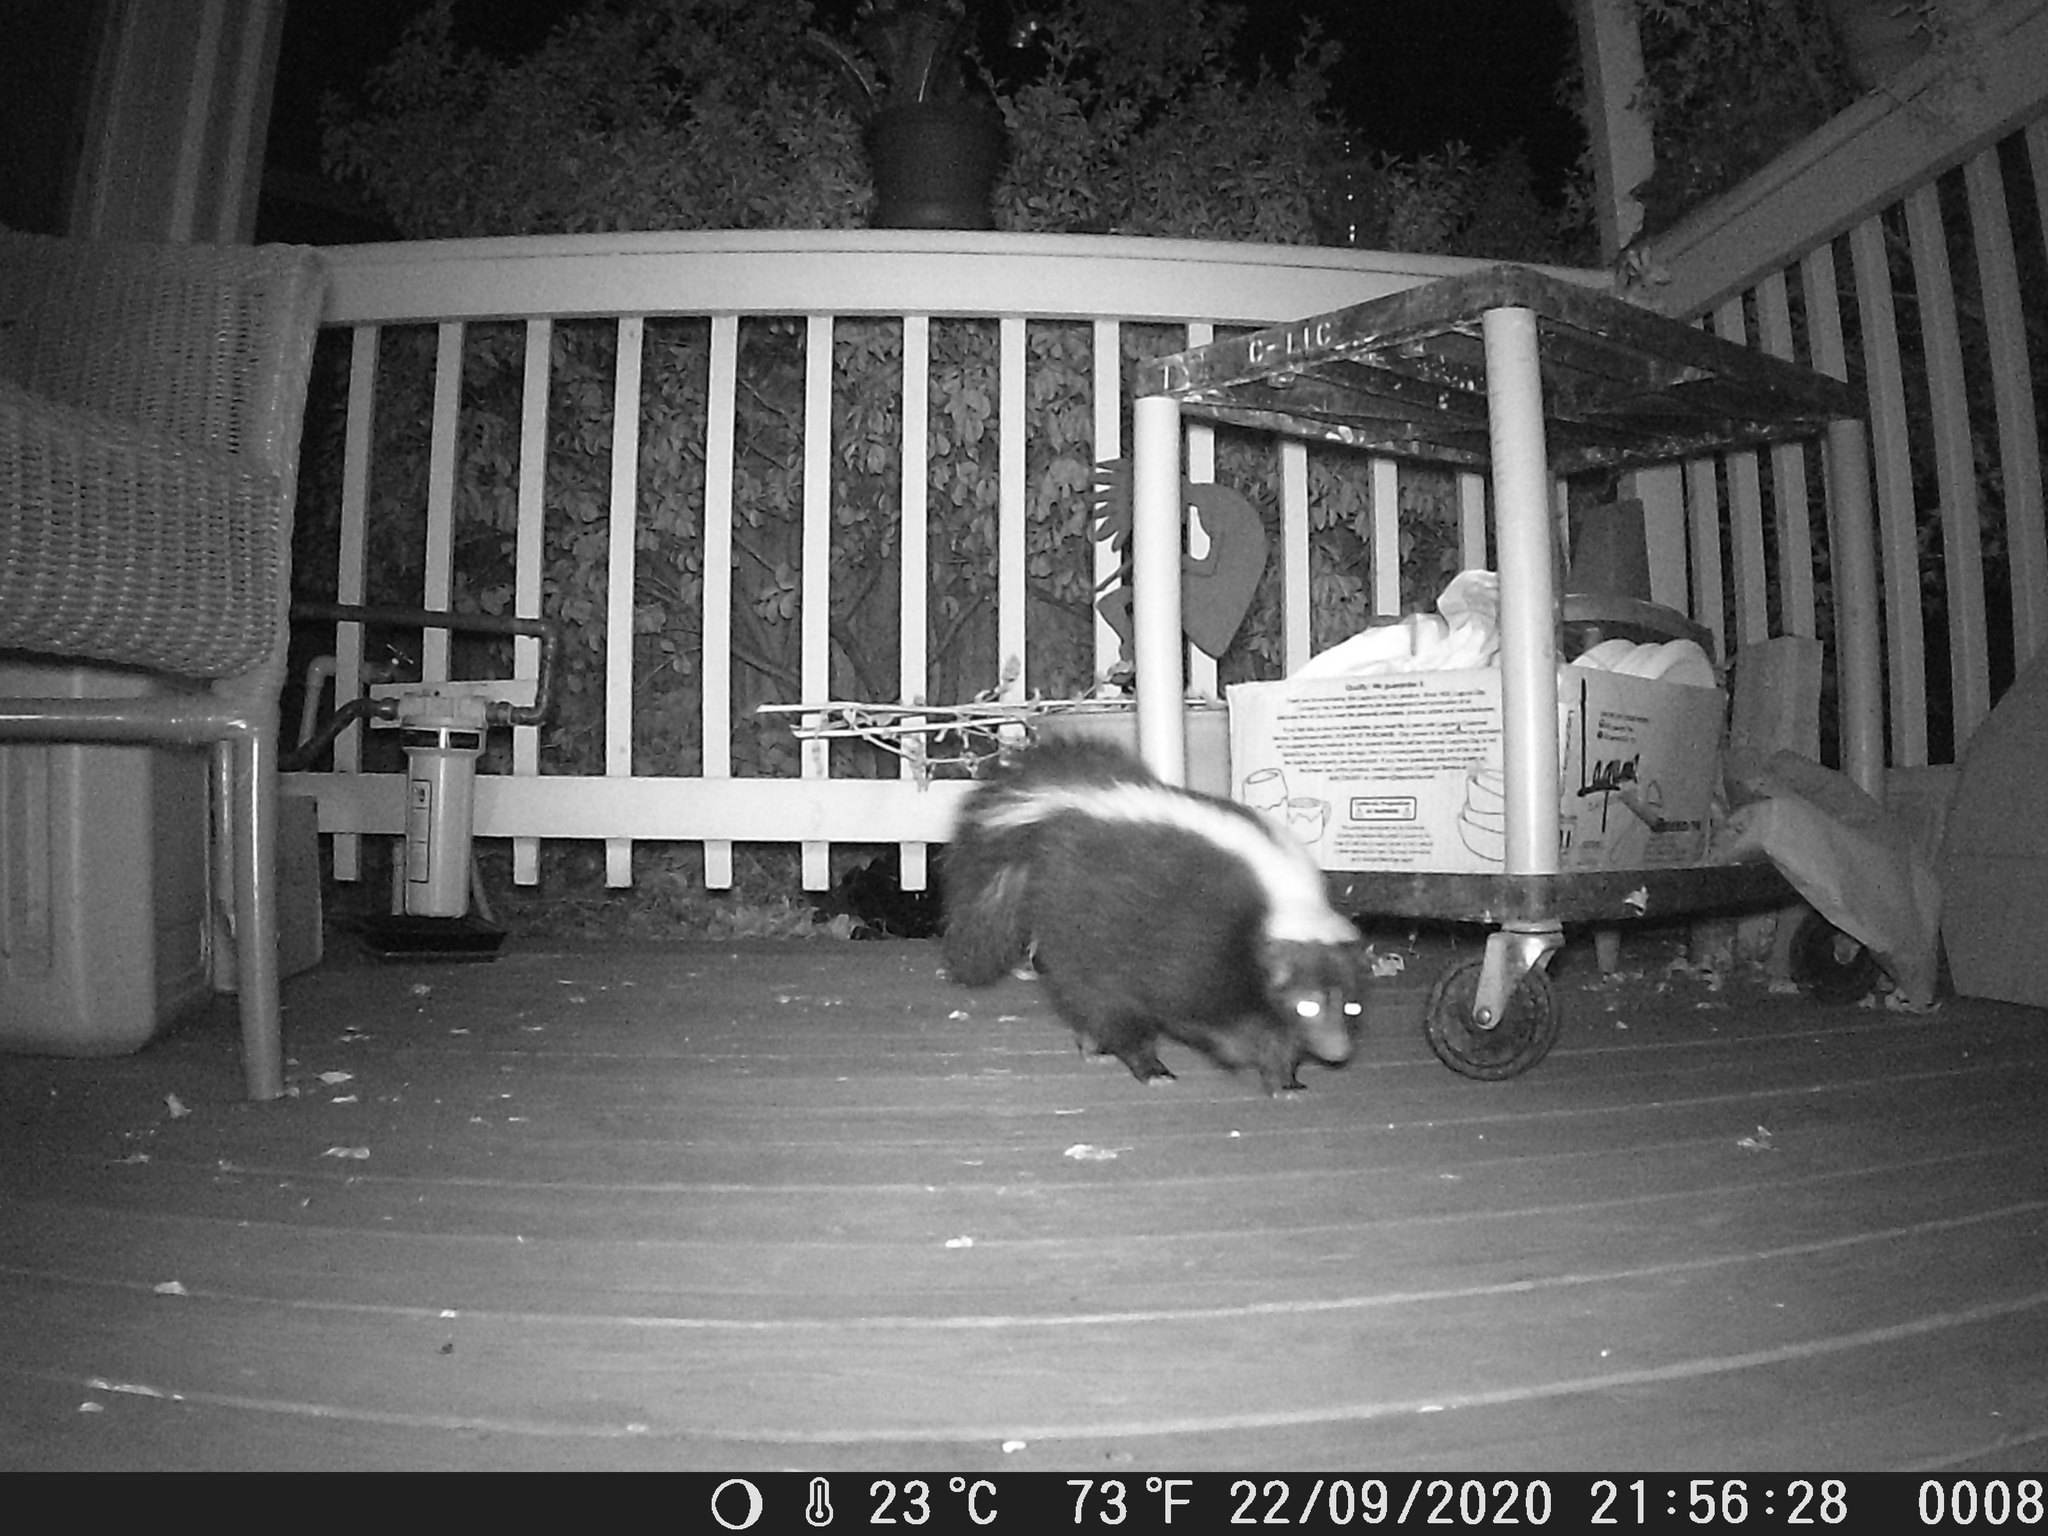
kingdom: Animalia
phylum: Chordata
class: Mammalia
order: Carnivora
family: Mephitidae
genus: Mephitis
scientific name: Mephitis mephitis
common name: Striped skunk
